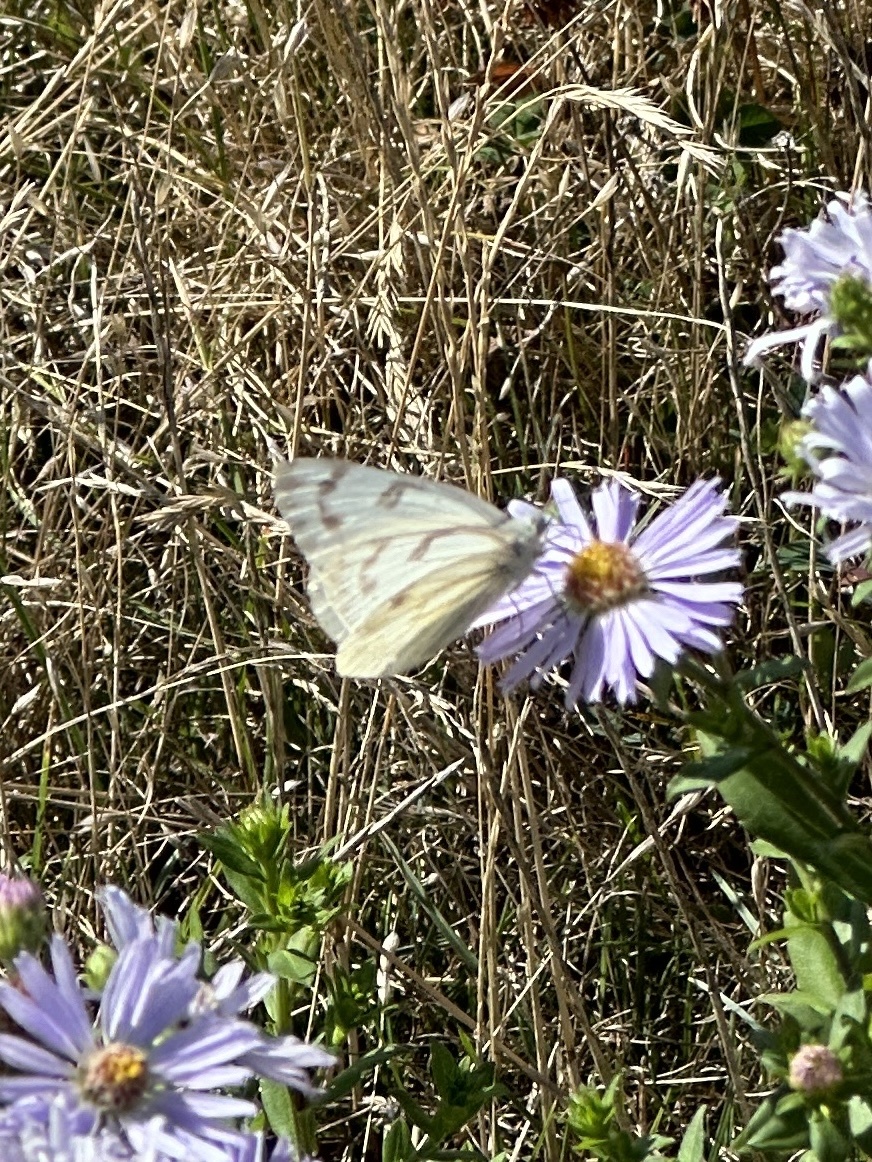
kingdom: Animalia
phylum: Arthropoda
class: Insecta
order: Lepidoptera
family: Pieridae
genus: Pontia
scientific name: Pontia occidentalis
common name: Western white
